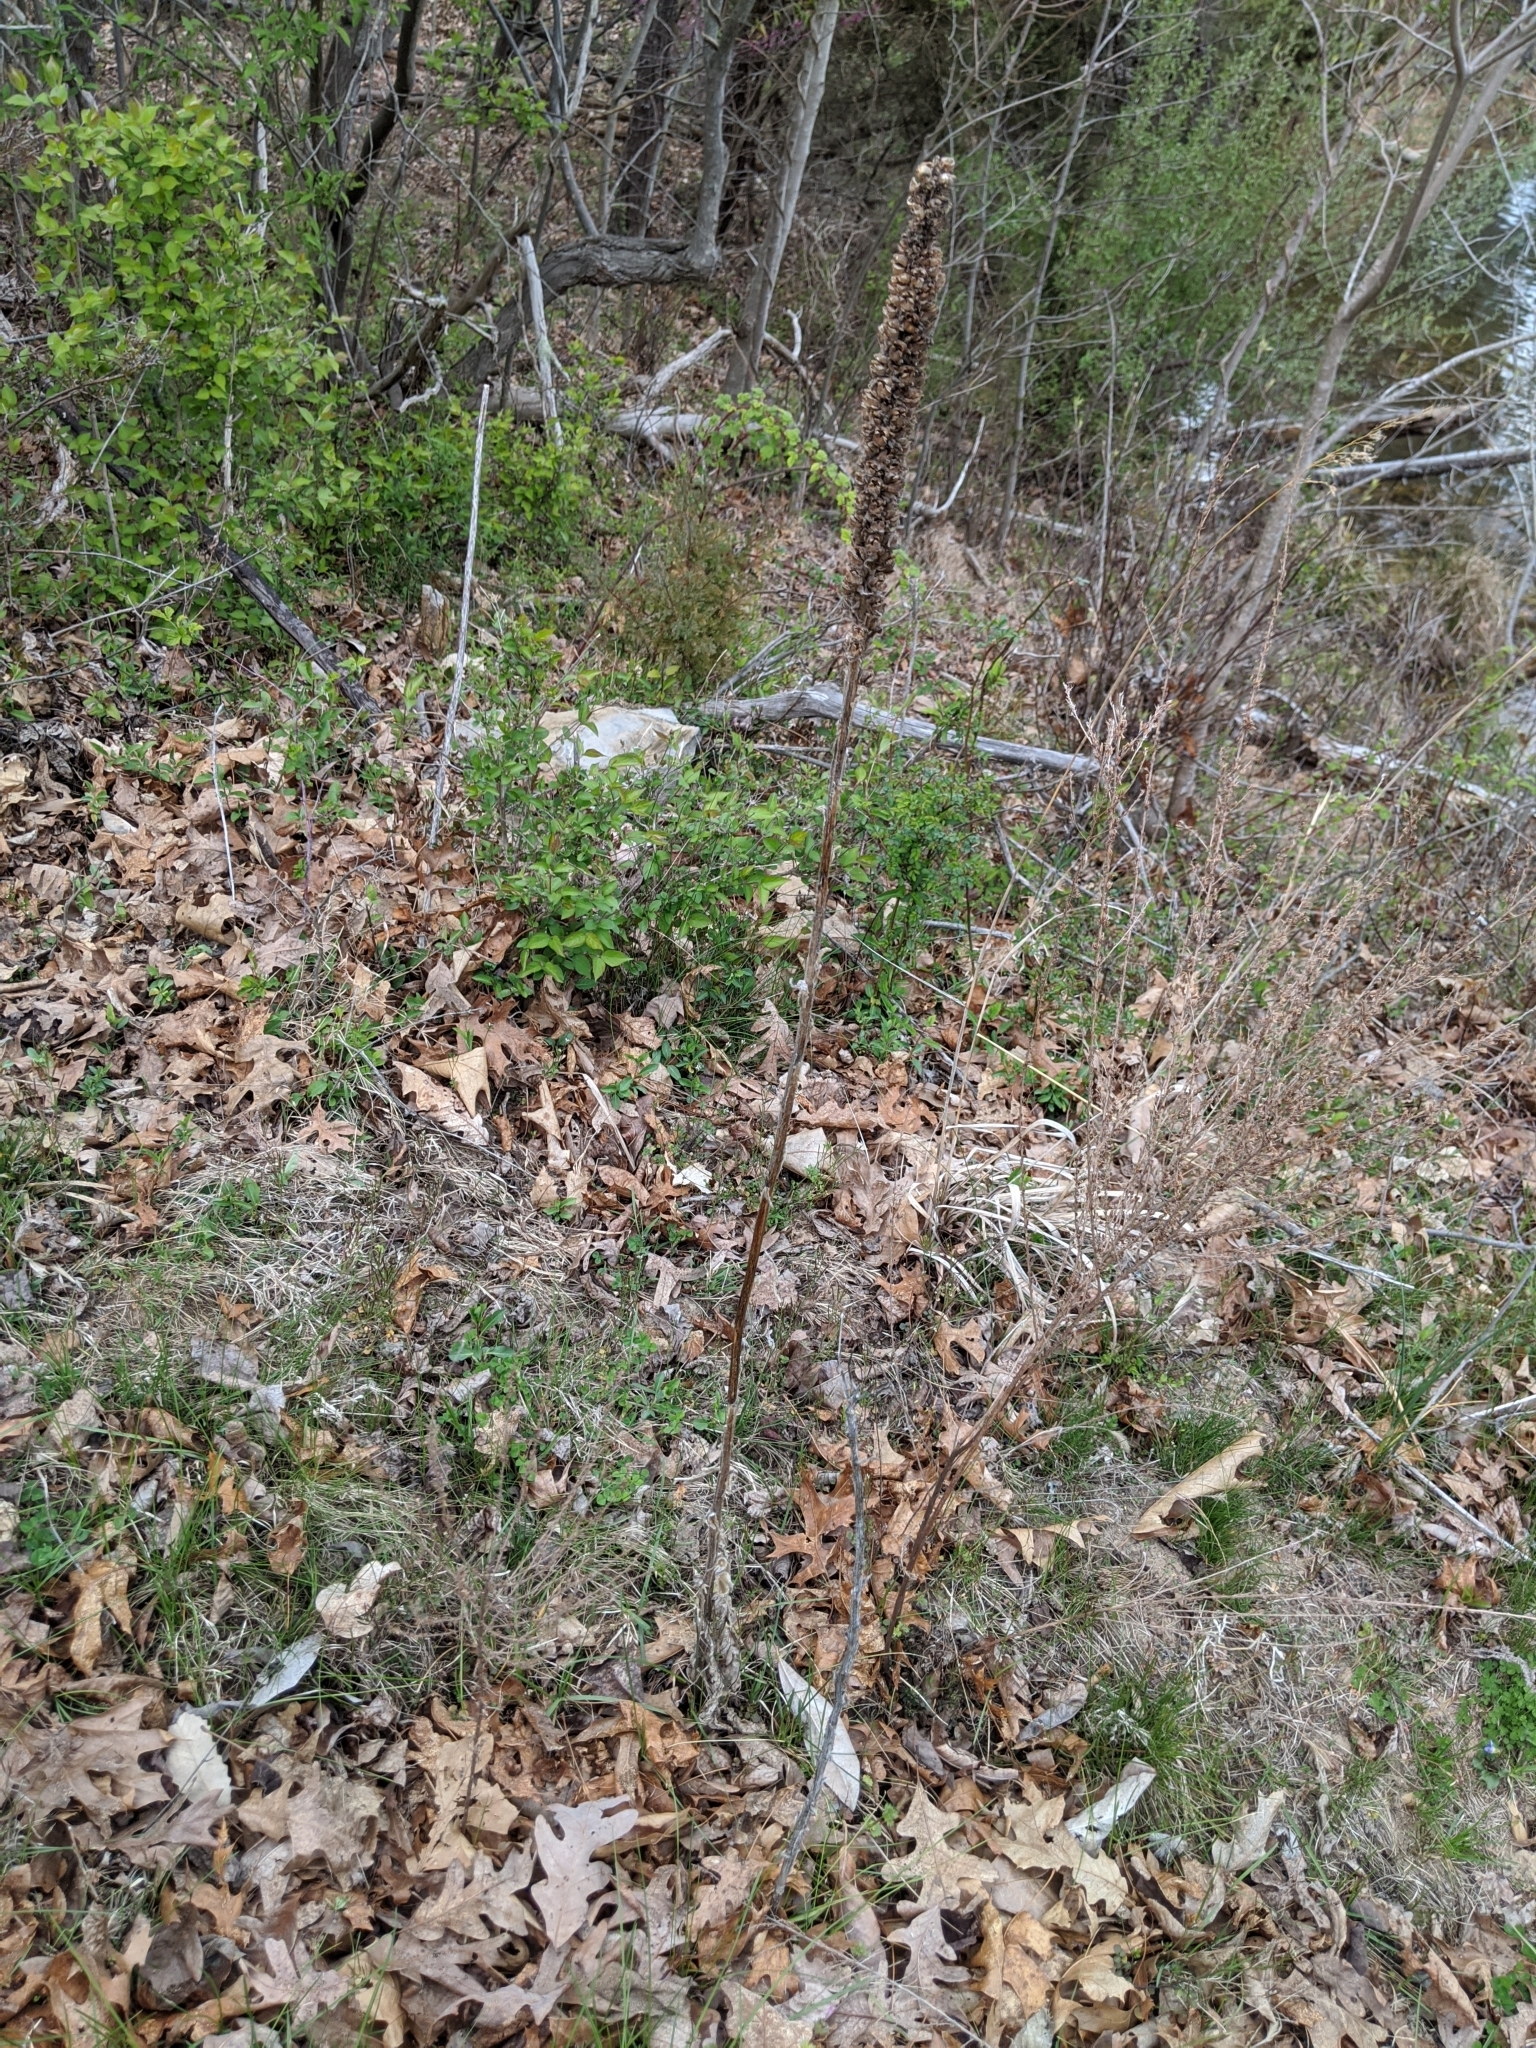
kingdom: Plantae
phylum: Tracheophyta
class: Magnoliopsida
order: Lamiales
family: Scrophulariaceae
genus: Verbascum
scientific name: Verbascum thapsus
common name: Common mullein
